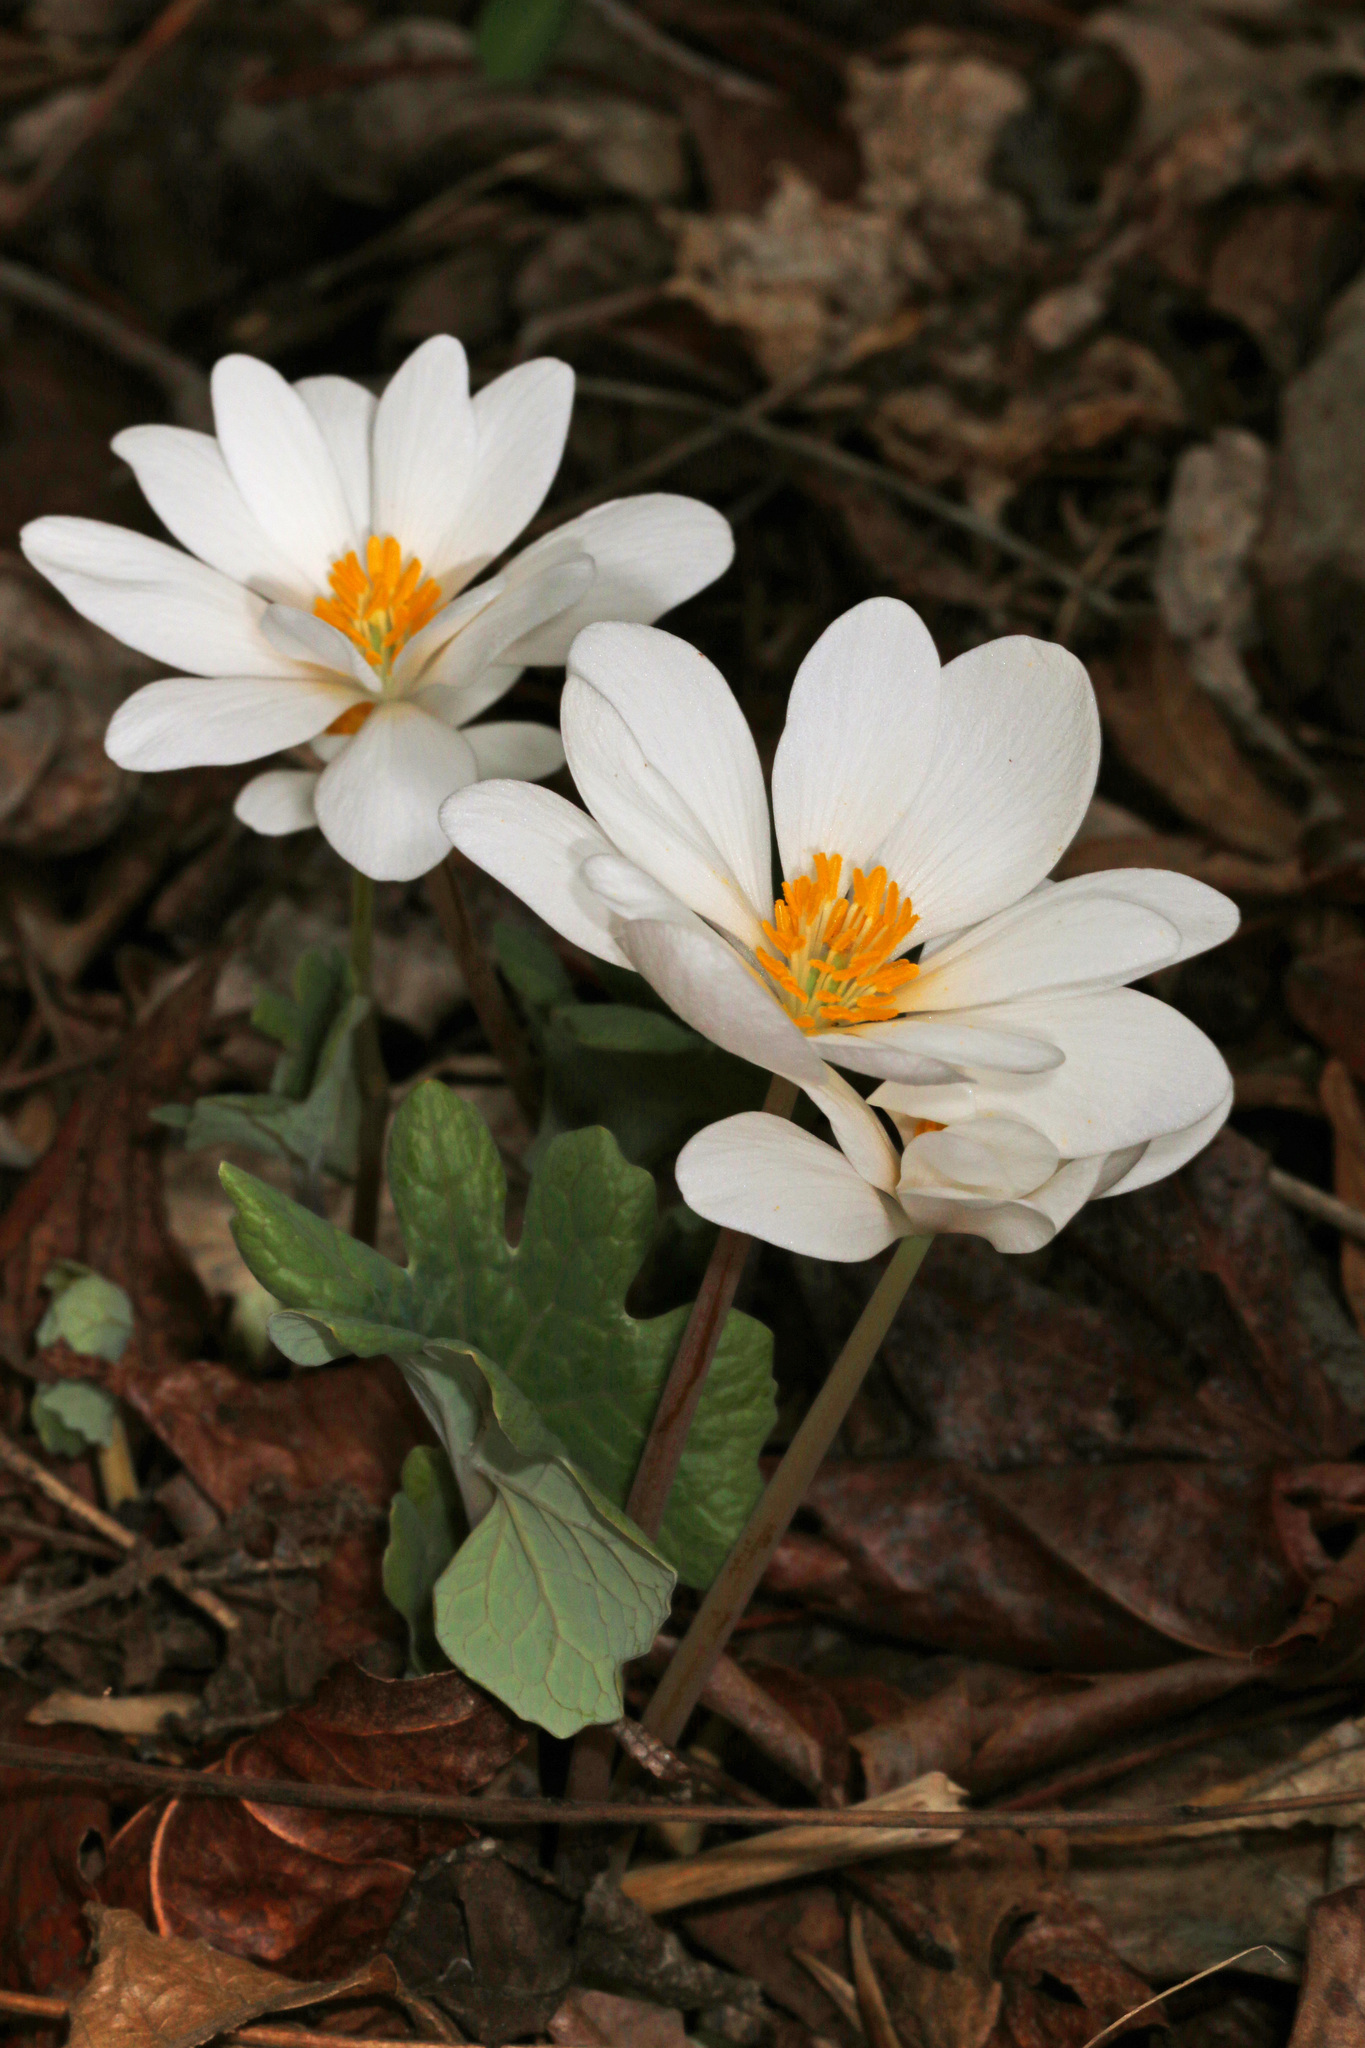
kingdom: Plantae
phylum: Tracheophyta
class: Magnoliopsida
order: Ranunculales
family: Papaveraceae
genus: Sanguinaria
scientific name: Sanguinaria canadensis
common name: Bloodroot
